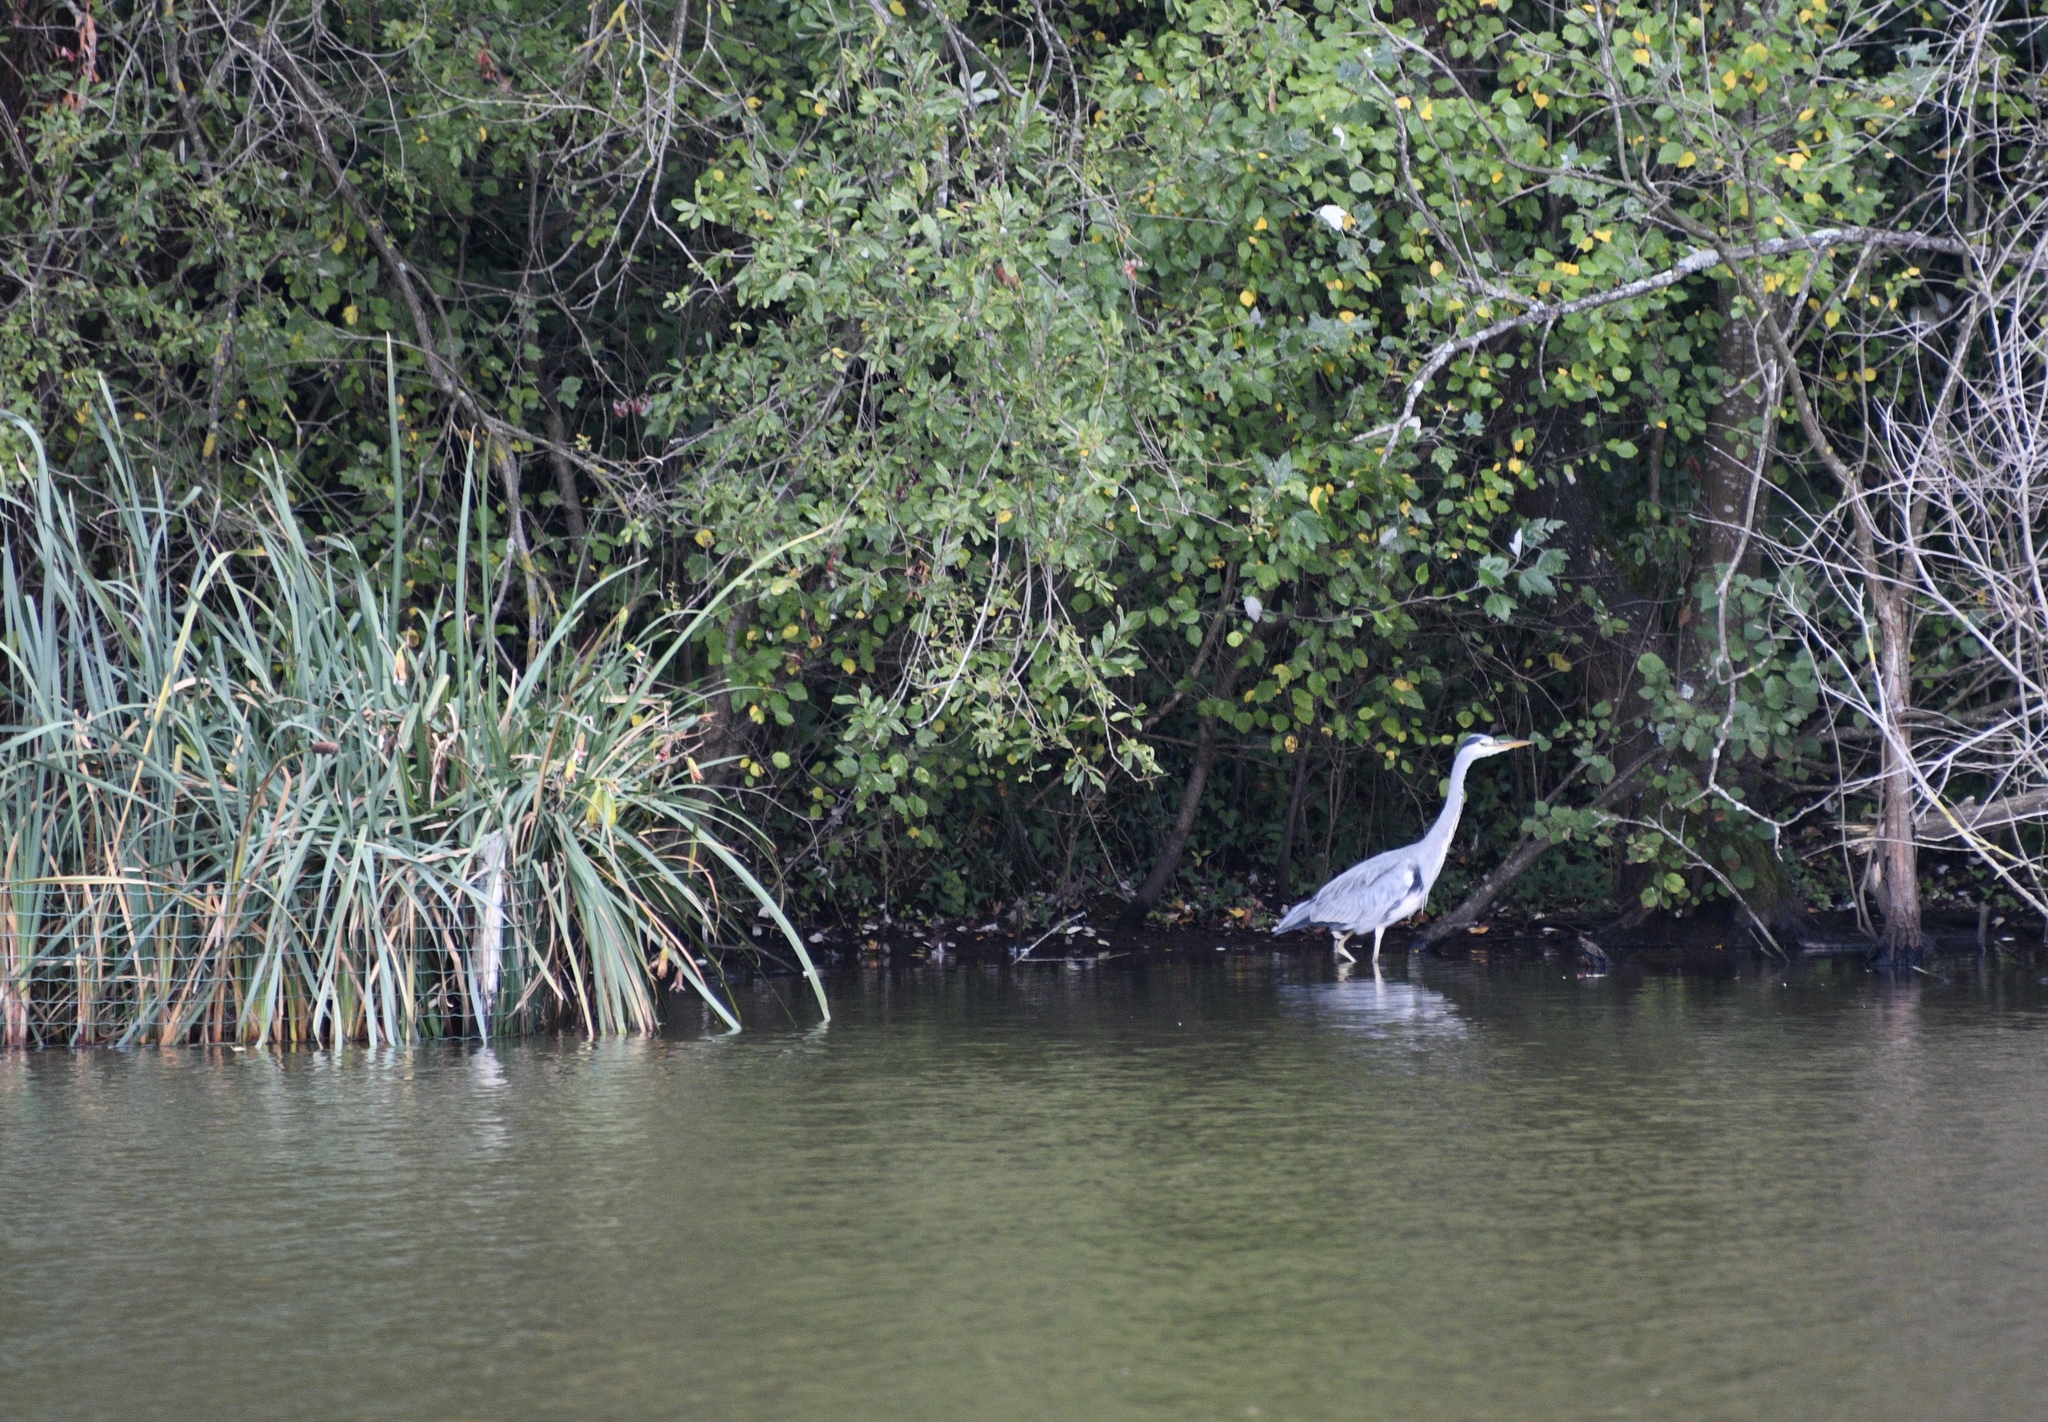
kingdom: Animalia
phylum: Chordata
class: Aves
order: Pelecaniformes
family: Ardeidae
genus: Ardea
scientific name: Ardea cinerea
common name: Grey heron
